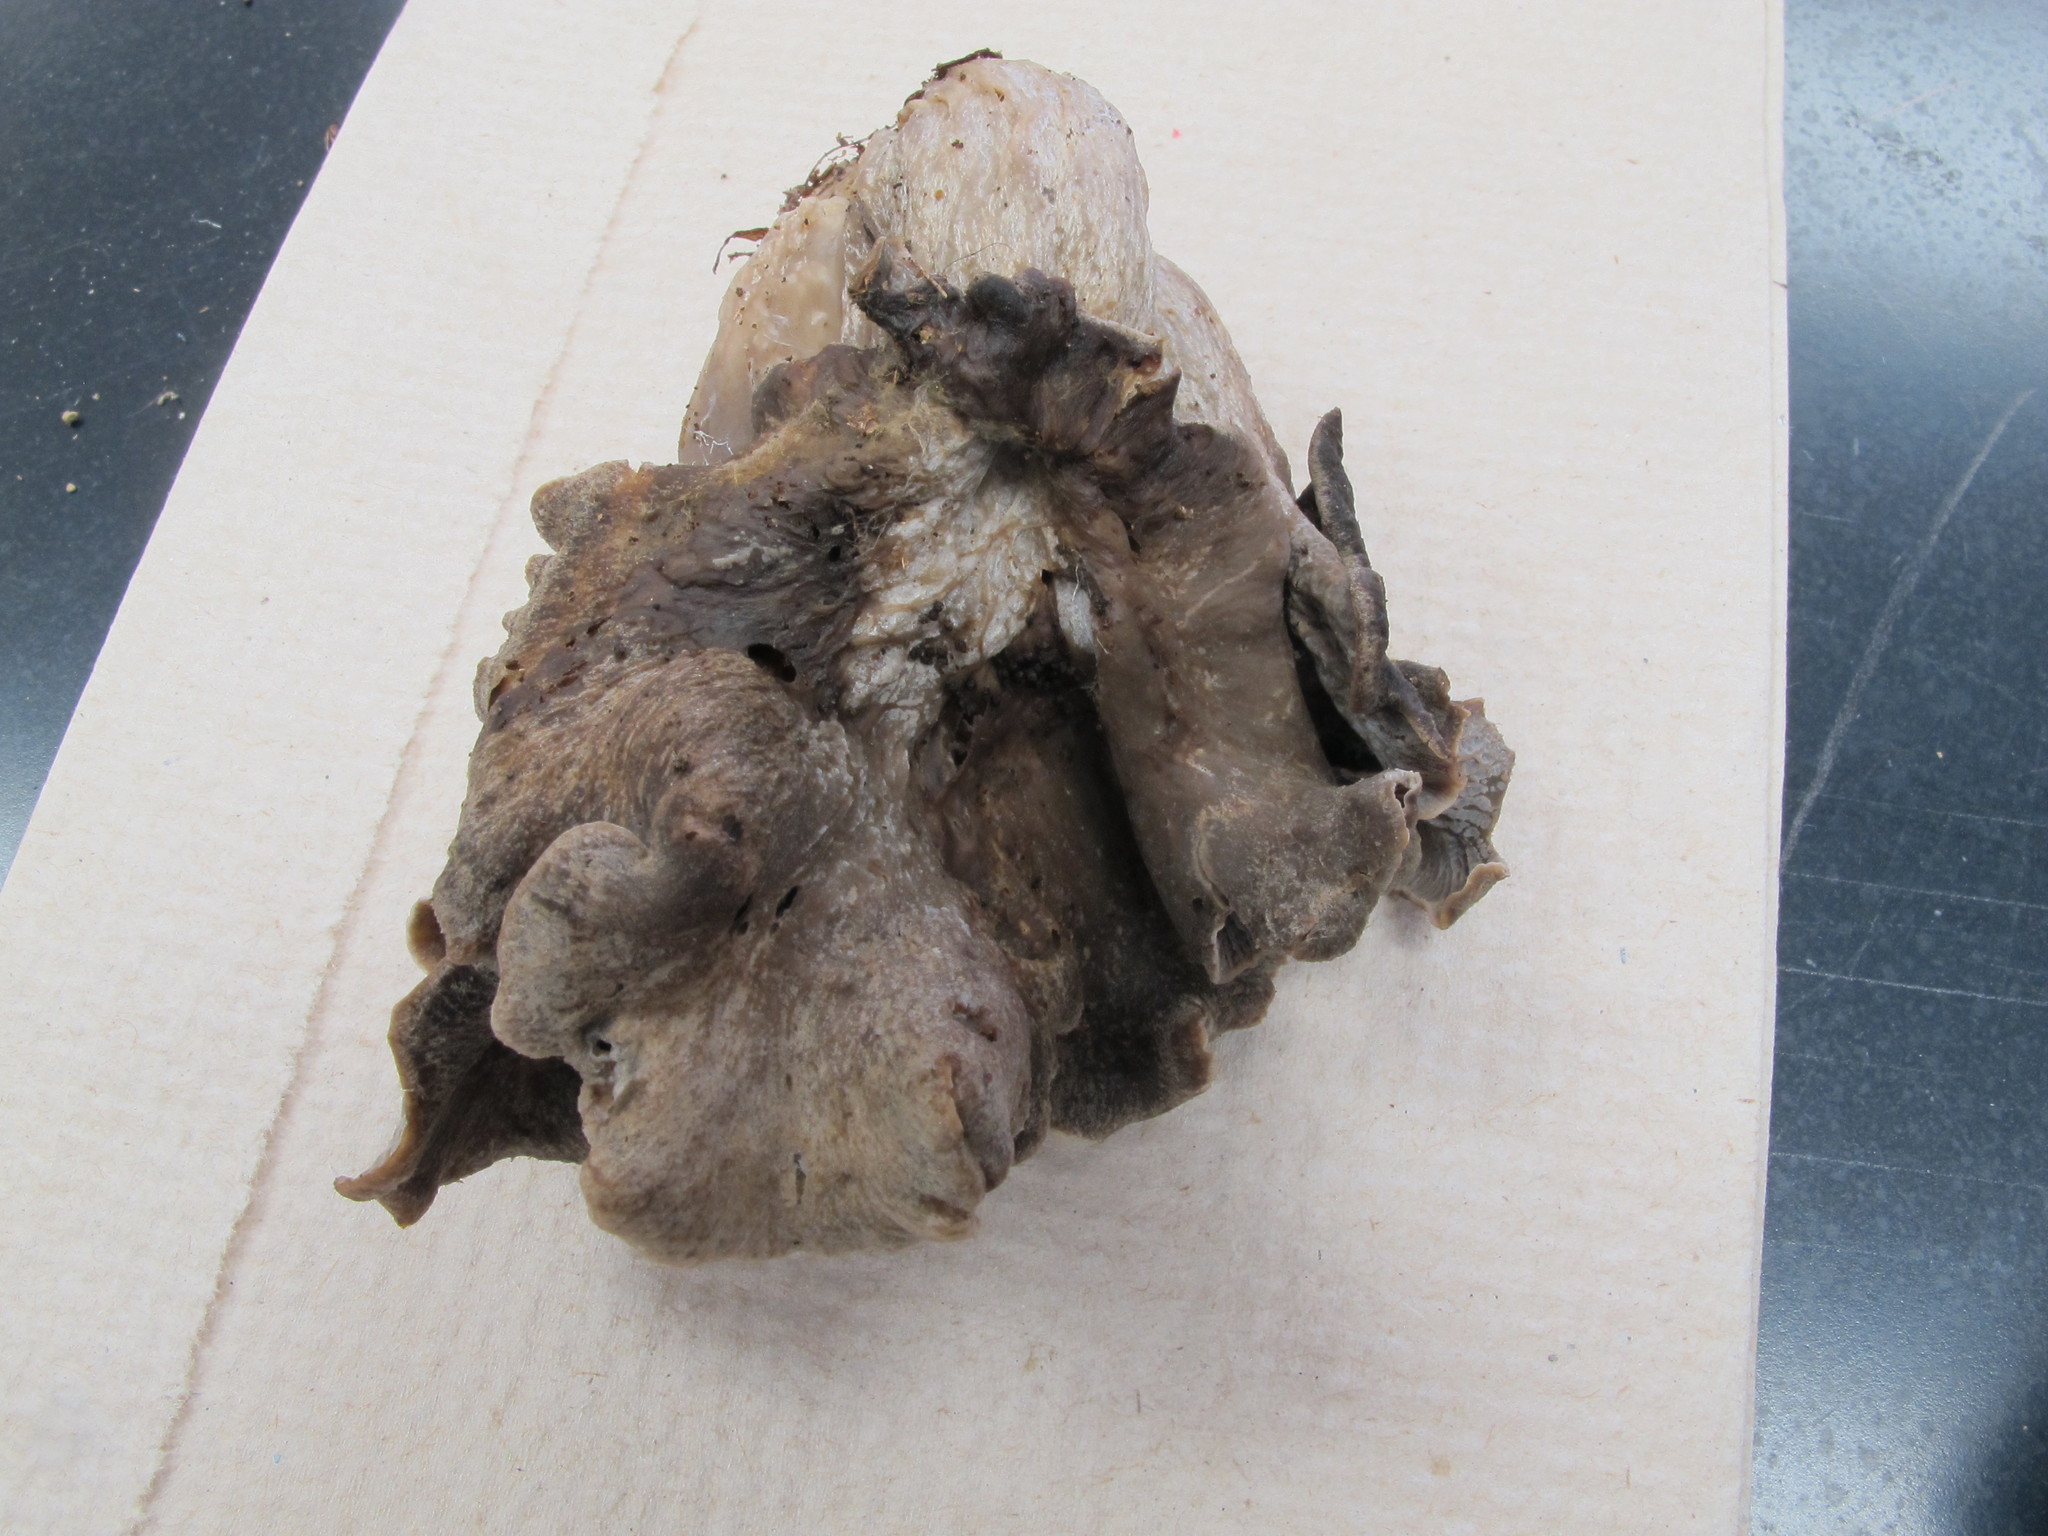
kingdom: Fungi
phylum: Basidiomycota
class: Agaricomycetes
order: Cantharellales
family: Hydnaceae
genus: Craterellus
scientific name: Craterellus foetidus
